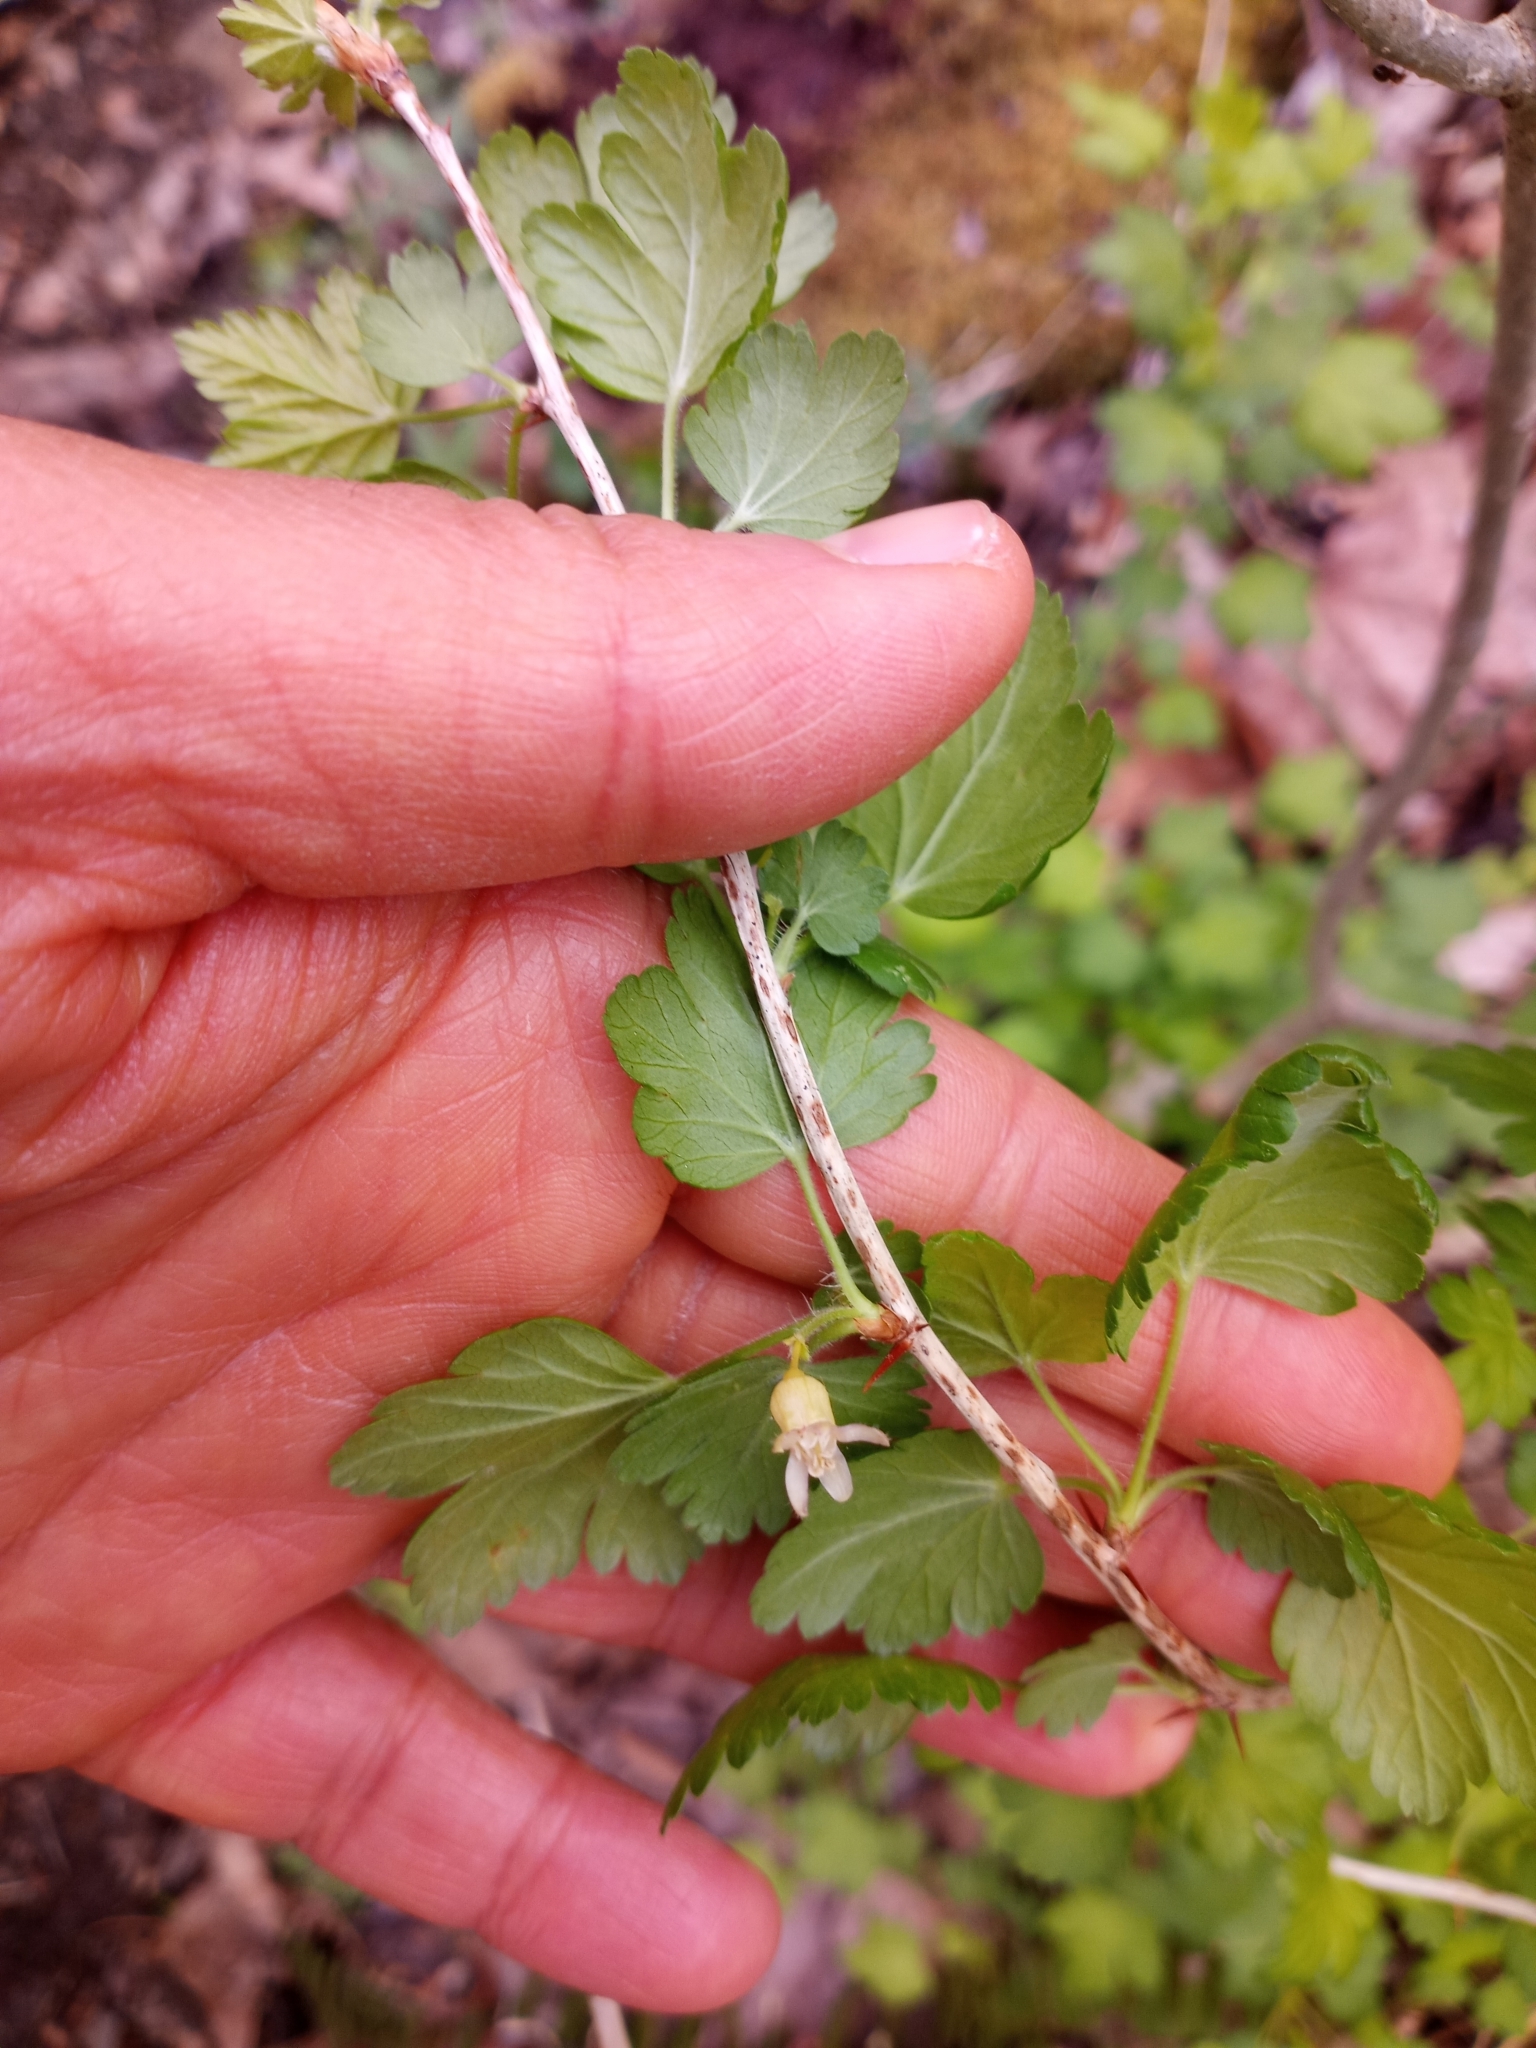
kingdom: Plantae
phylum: Tracheophyta
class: Magnoliopsida
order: Saxifragales
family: Grossulariaceae
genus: Ribes
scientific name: Ribes cynosbati
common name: American gooseberry
